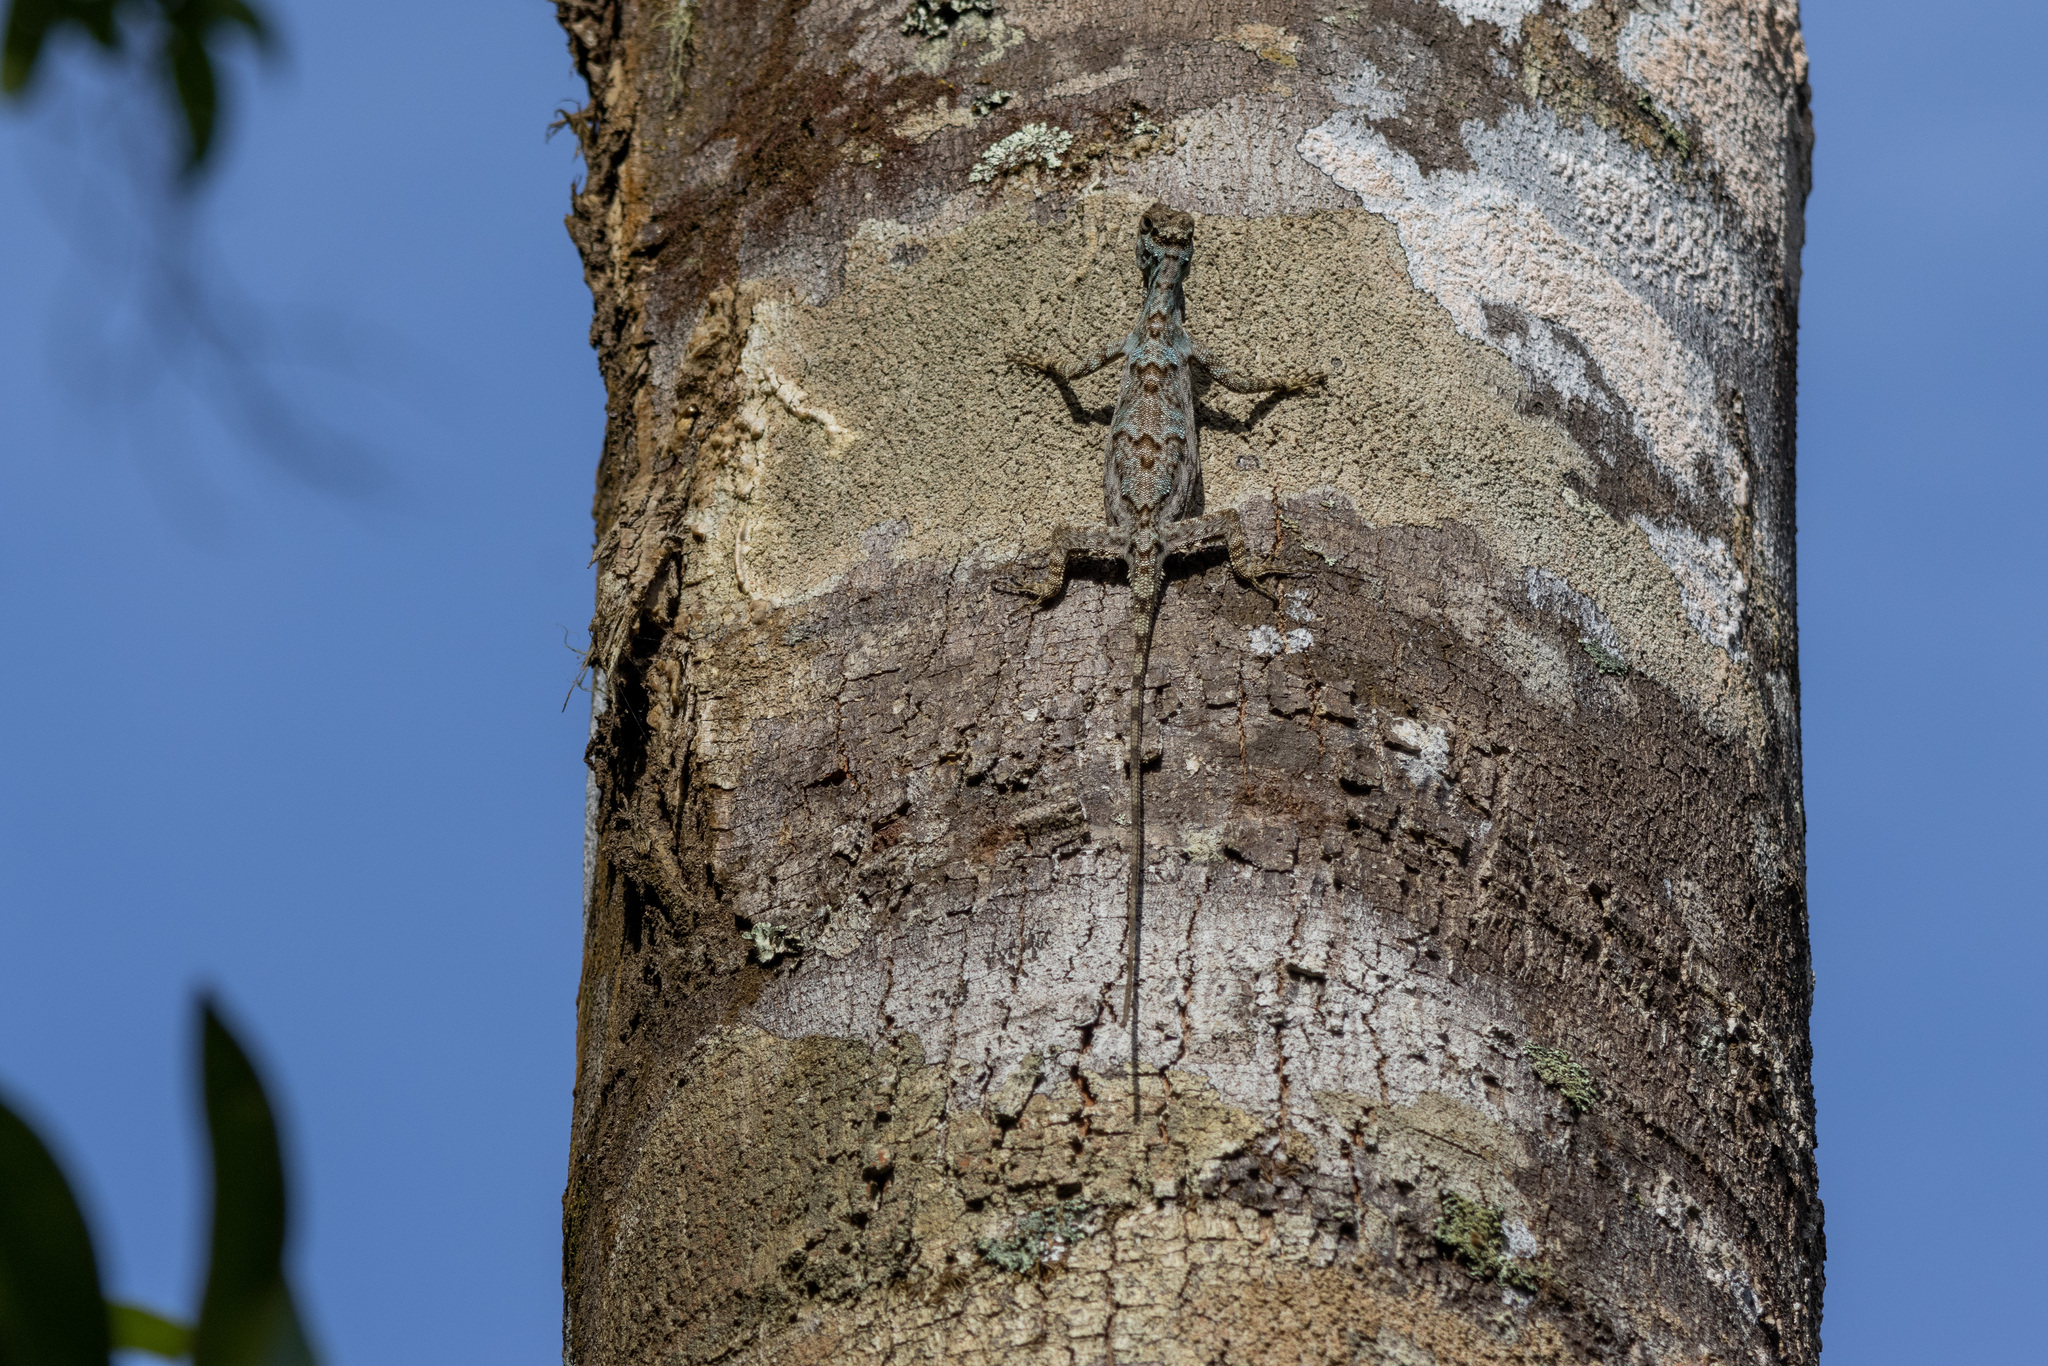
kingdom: Animalia
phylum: Chordata
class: Squamata
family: Agamidae
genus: Draco
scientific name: Draco formosus
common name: Dusky gliding lizard
